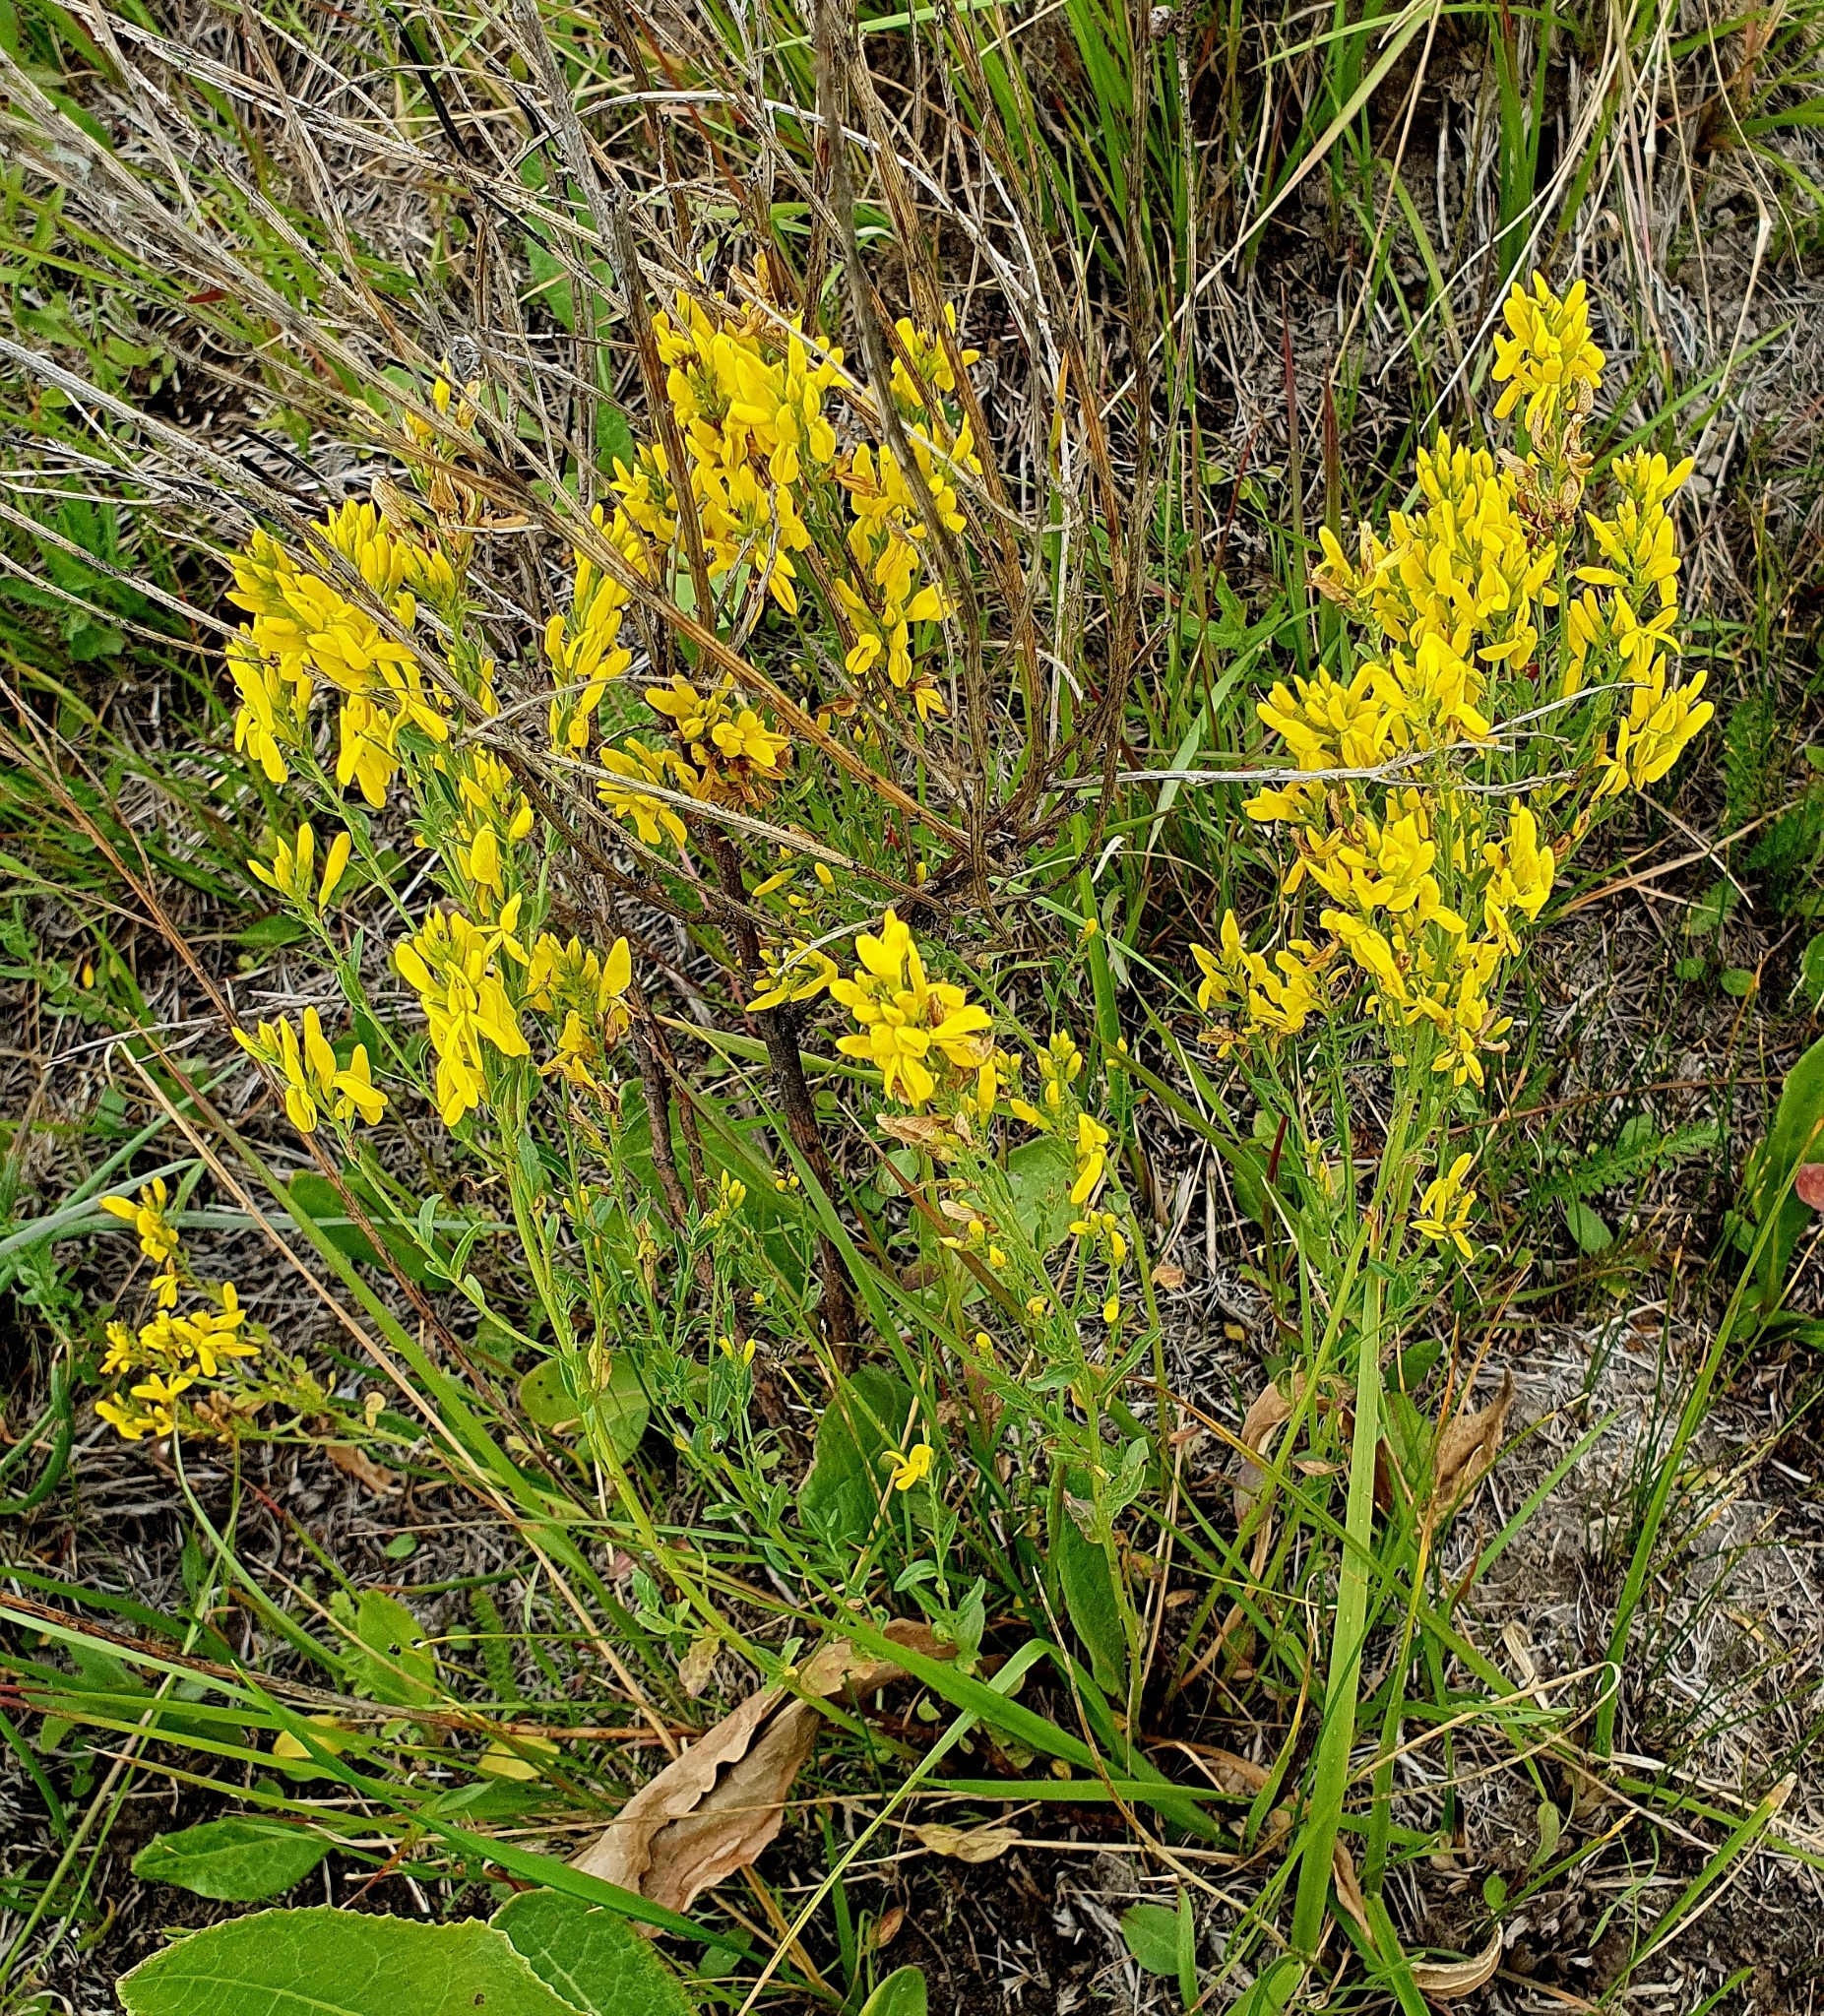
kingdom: Plantae
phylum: Tracheophyta
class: Magnoliopsida
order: Fabales
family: Fabaceae
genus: Genista
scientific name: Genista tinctoria
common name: Dyer's greenweed
